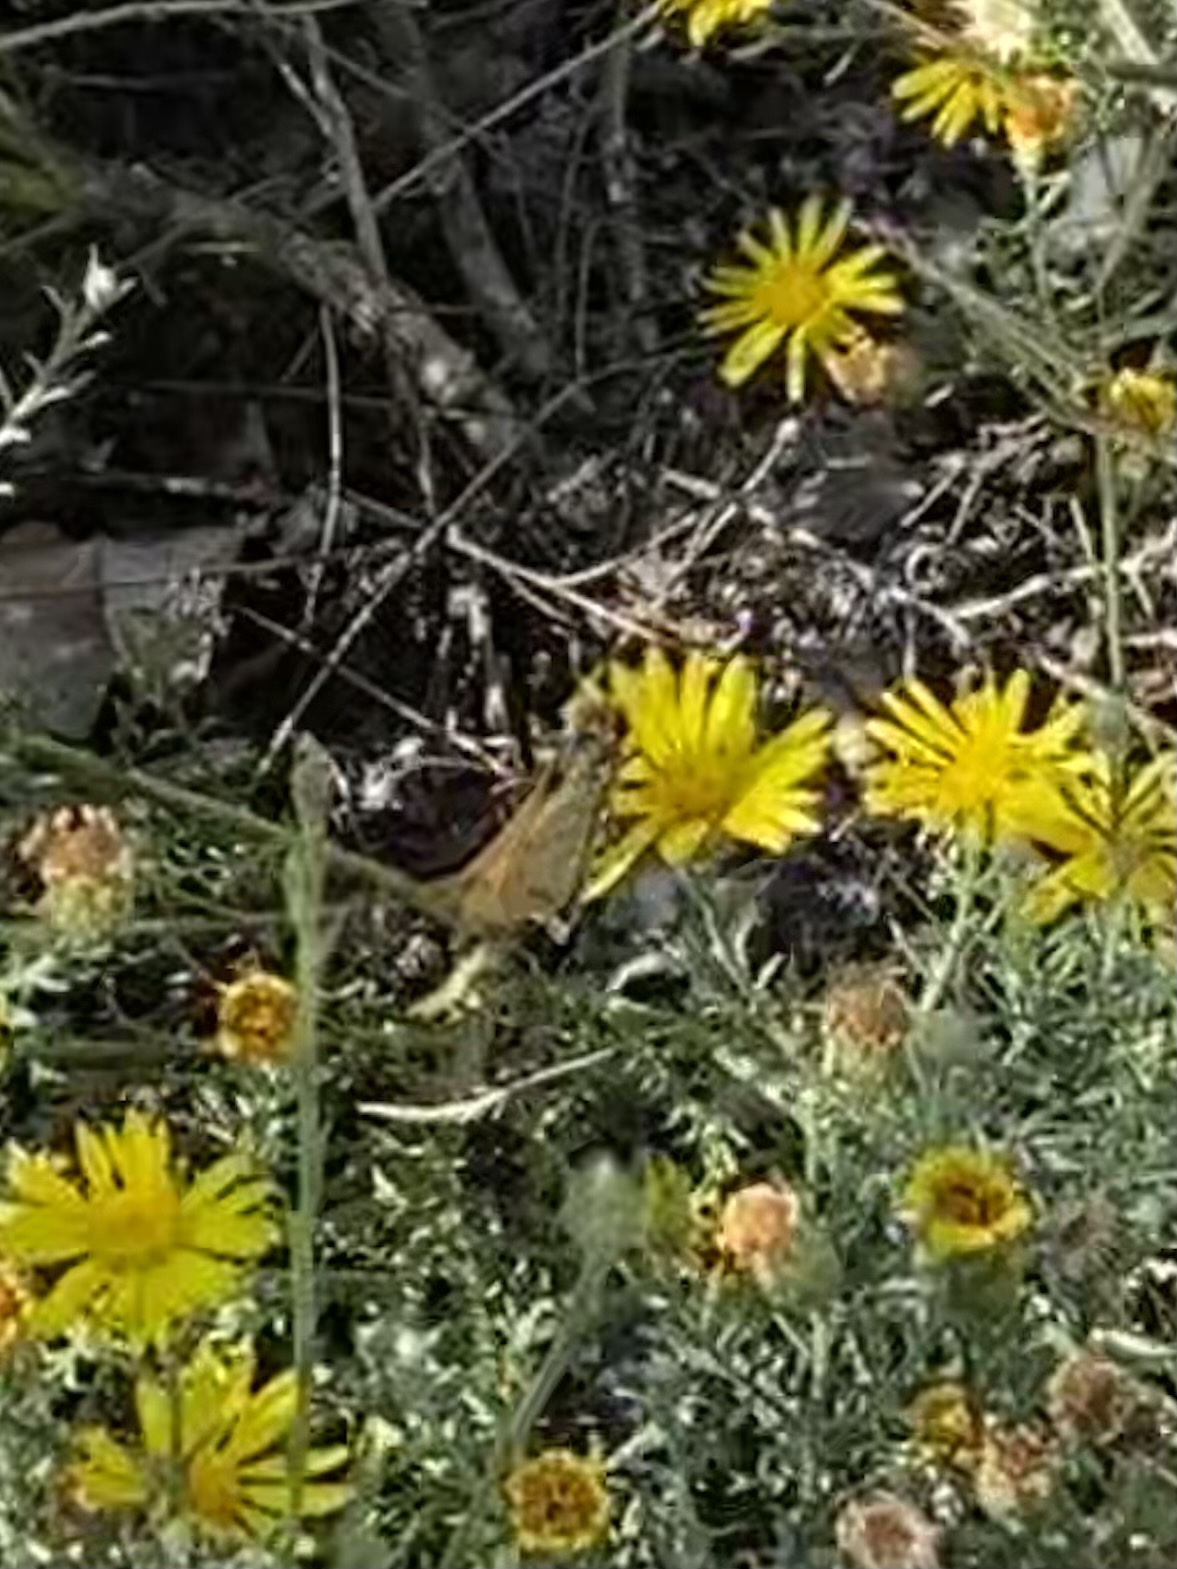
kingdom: Animalia
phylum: Arthropoda
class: Insecta
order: Lepidoptera
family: Hesperiidae
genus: Hylephila
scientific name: Hylephila phyleus
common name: Fiery skipper
